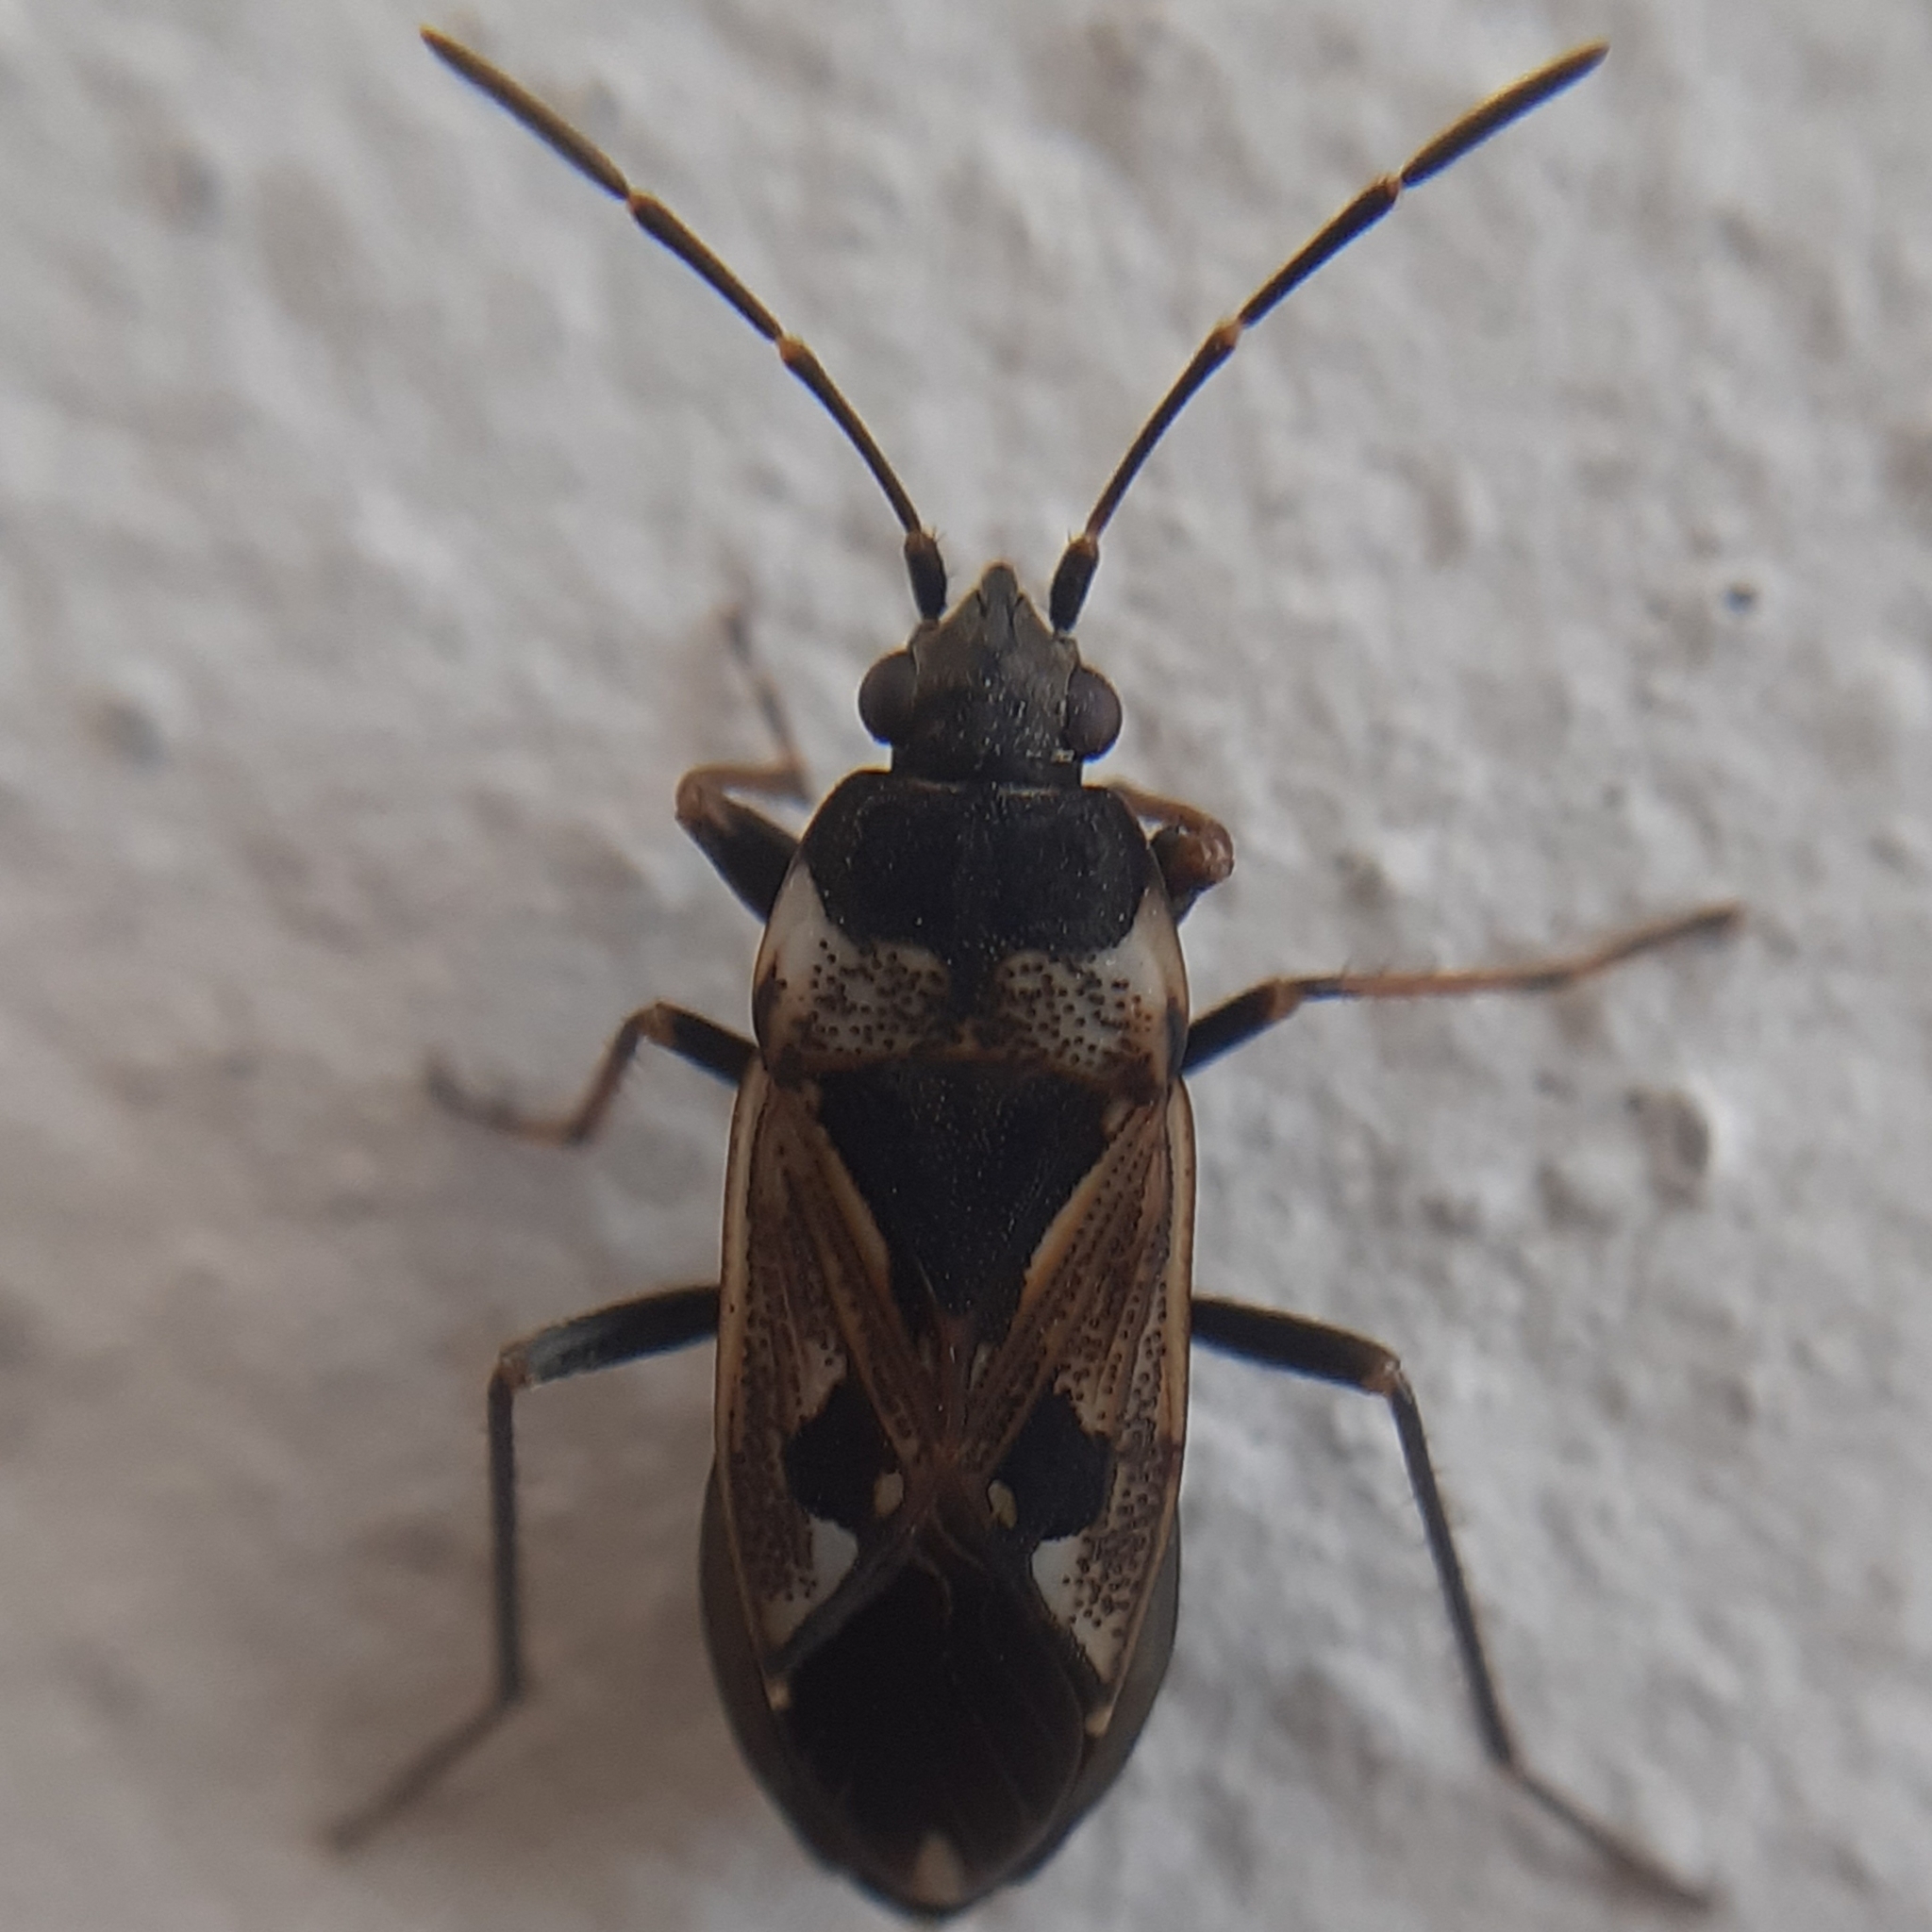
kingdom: Animalia
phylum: Arthropoda
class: Insecta
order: Hemiptera
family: Rhyparochromidae
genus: Rhyparochromus
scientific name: Rhyparochromus vulgaris
